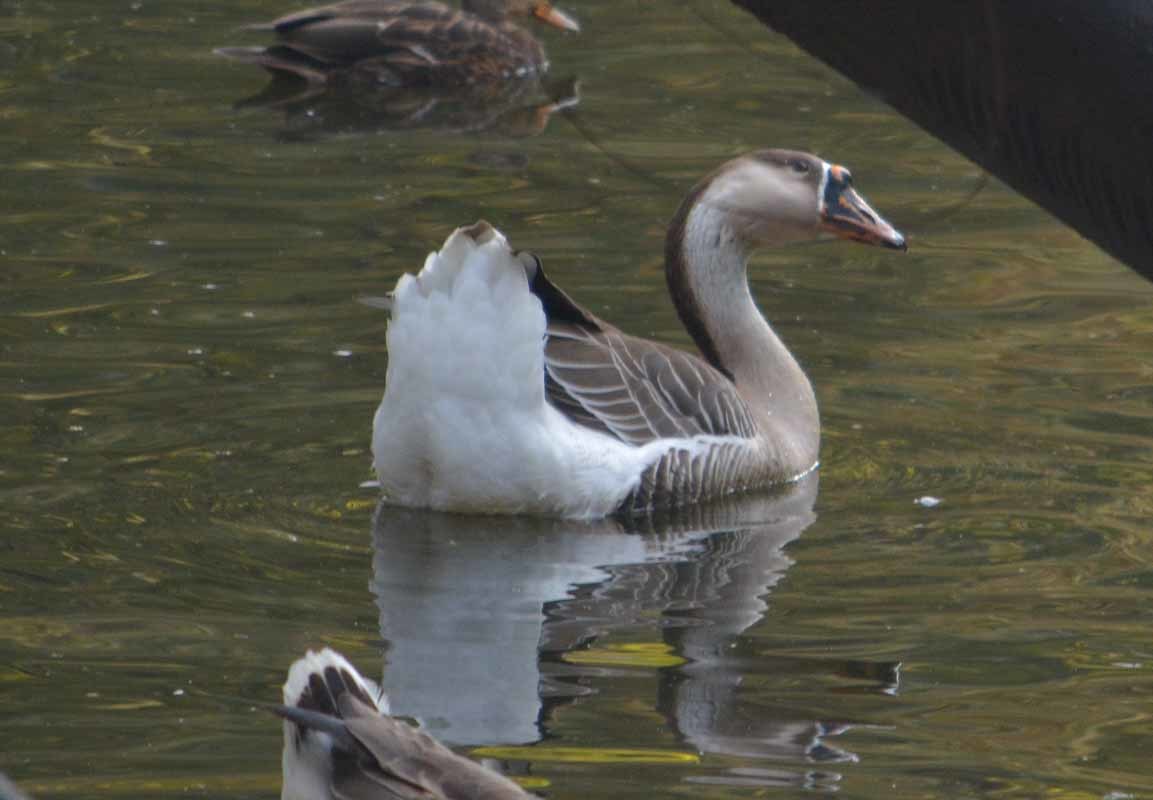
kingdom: Animalia
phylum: Chordata
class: Aves
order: Anseriformes
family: Anatidae
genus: Anser
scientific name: Anser
